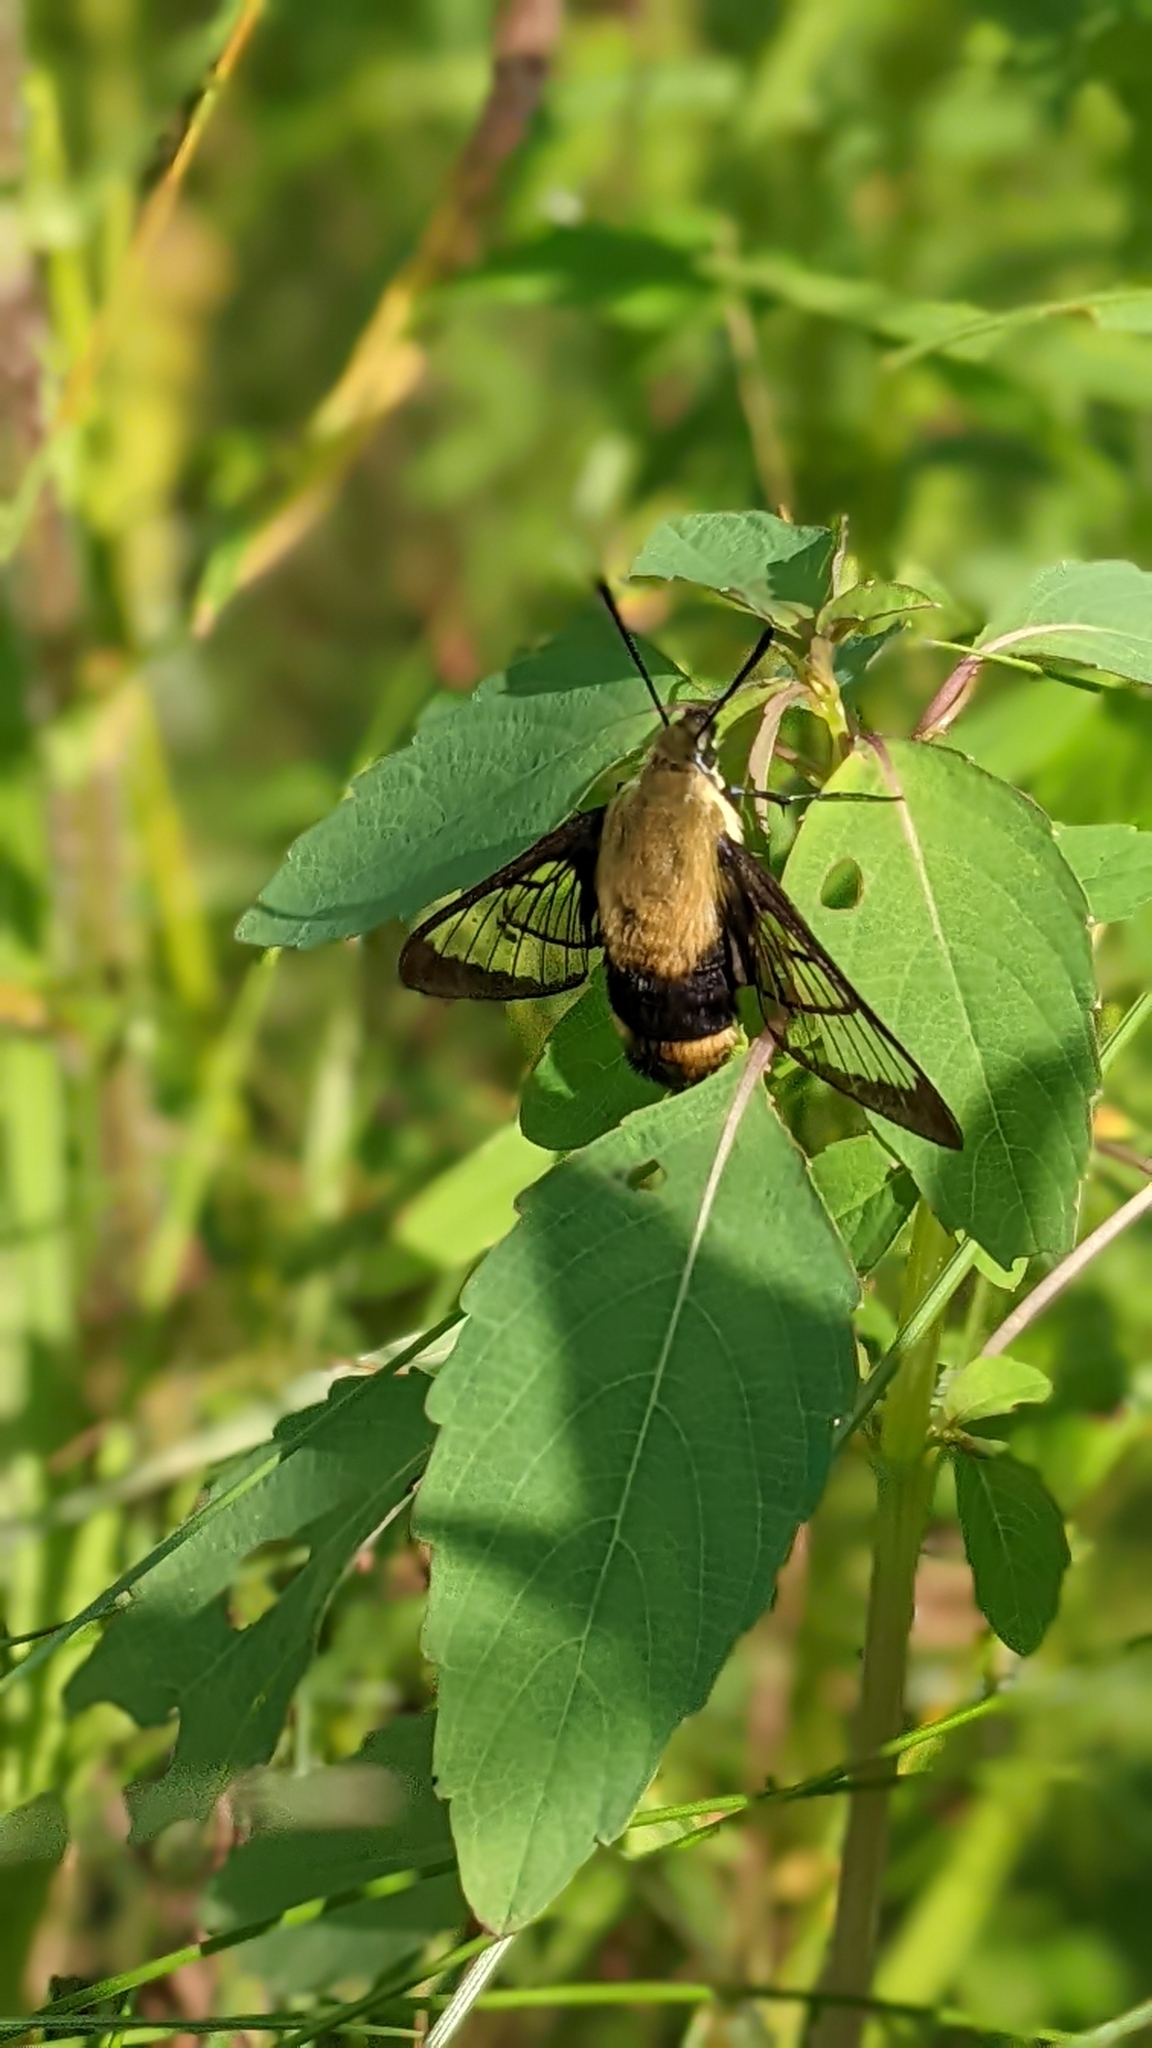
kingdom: Animalia
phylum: Arthropoda
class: Insecta
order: Lepidoptera
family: Sphingidae
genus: Hemaris
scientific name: Hemaris diffinis
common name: Bumblebee moth
